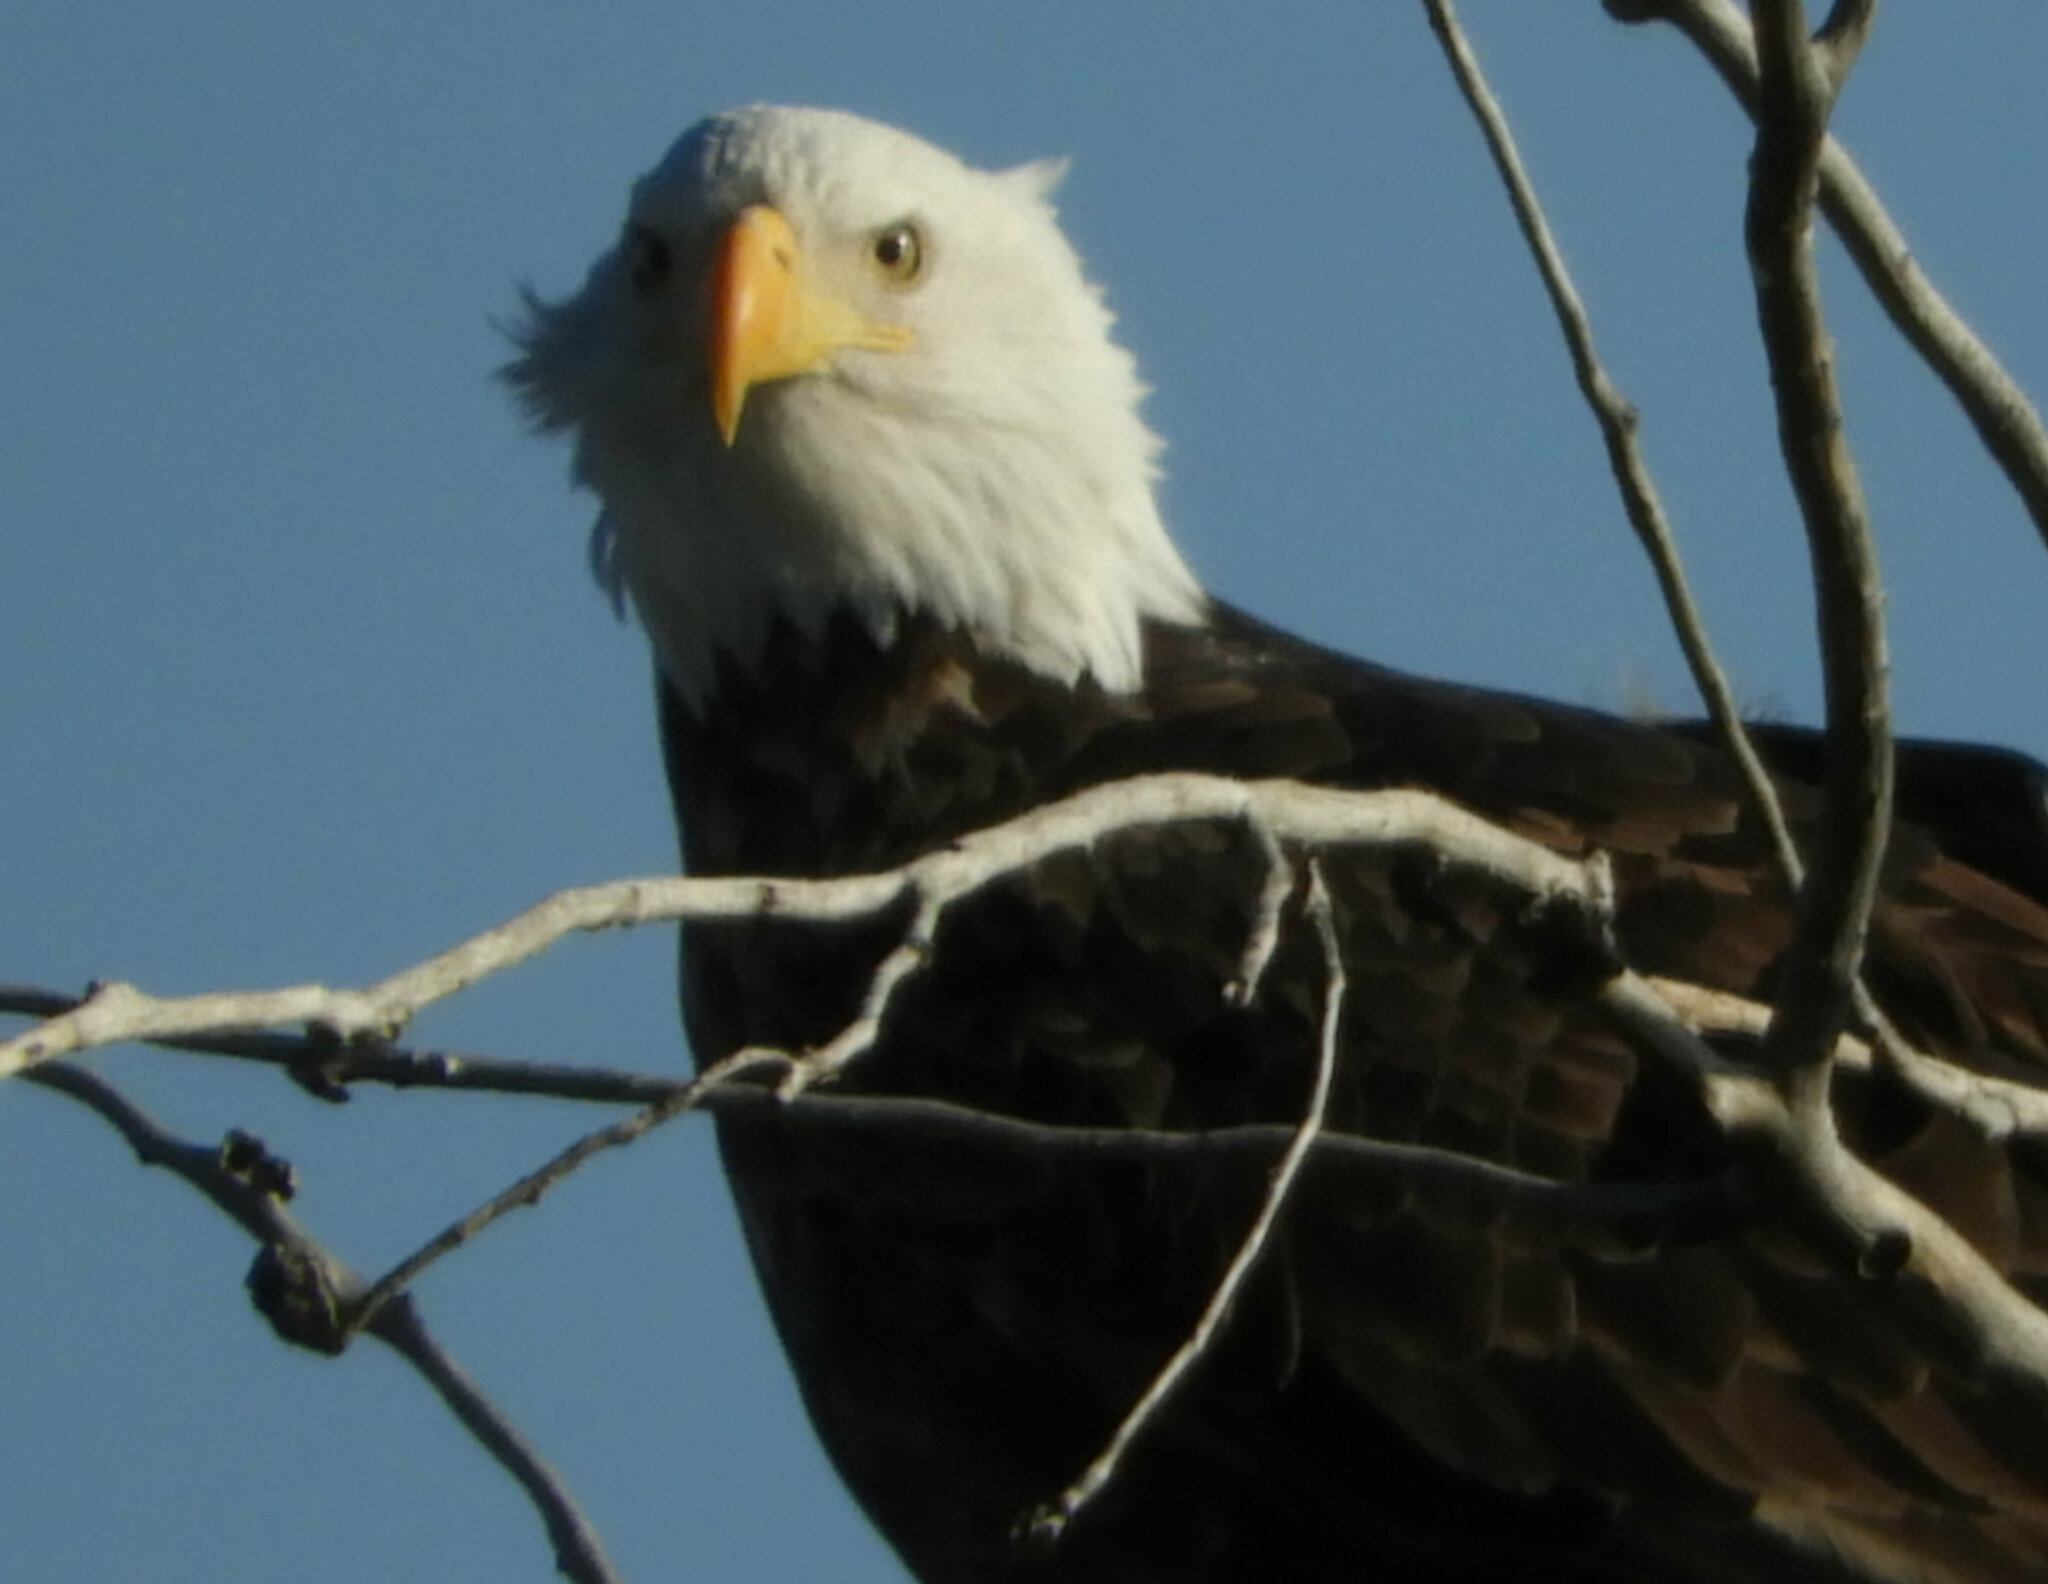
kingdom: Animalia
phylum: Chordata
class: Aves
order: Accipitriformes
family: Accipitridae
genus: Haliaeetus
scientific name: Haliaeetus leucocephalus
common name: Bald eagle
